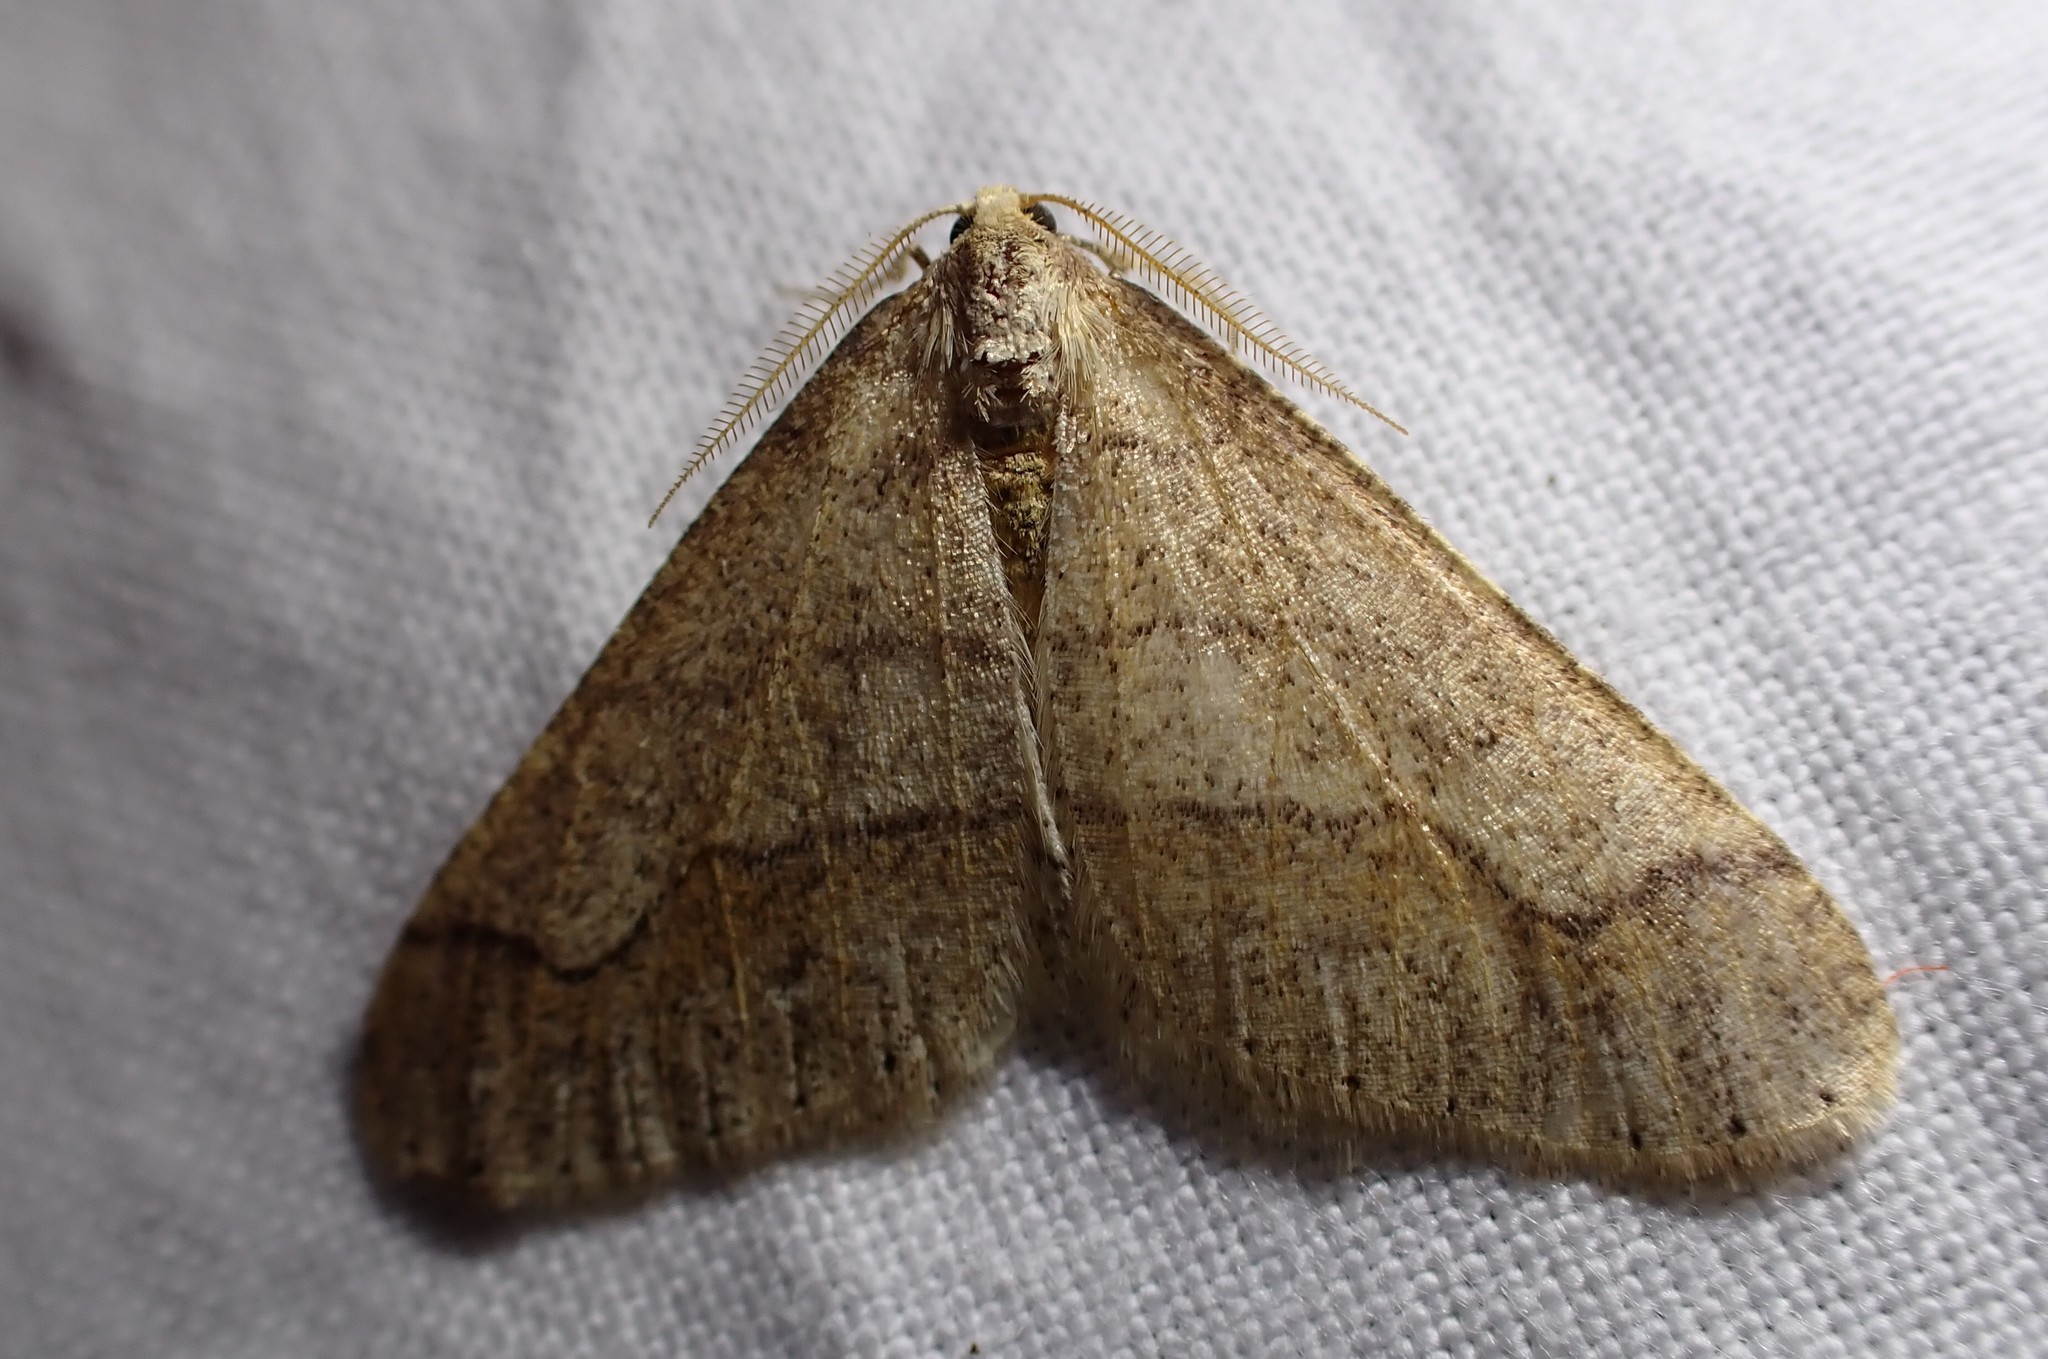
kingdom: Animalia
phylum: Arthropoda
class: Insecta
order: Lepidoptera
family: Geometridae
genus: Agriopis
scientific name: Agriopis marginaria
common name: Dotted border
